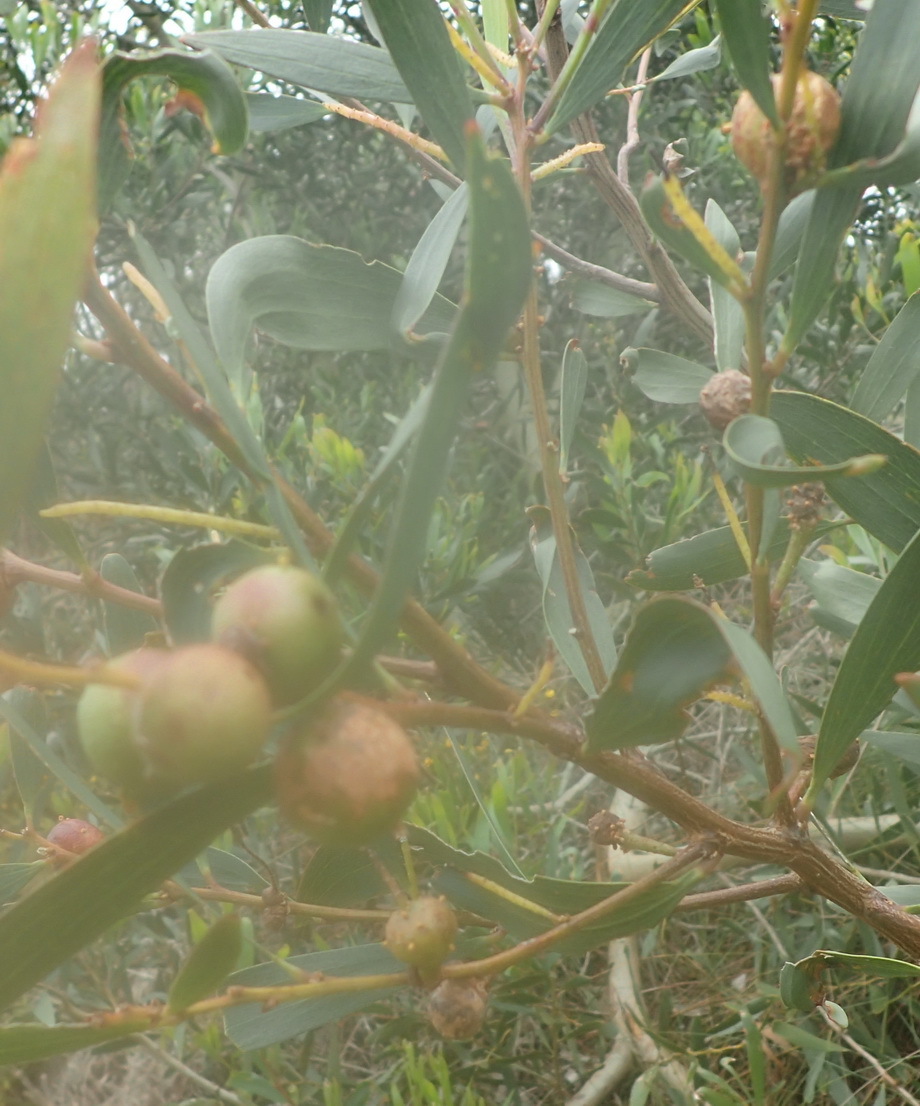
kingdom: Animalia
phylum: Arthropoda
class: Insecta
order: Hymenoptera
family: Pteromalidae
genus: Trichilogaster
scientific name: Trichilogaster acaciaelongifoliae
